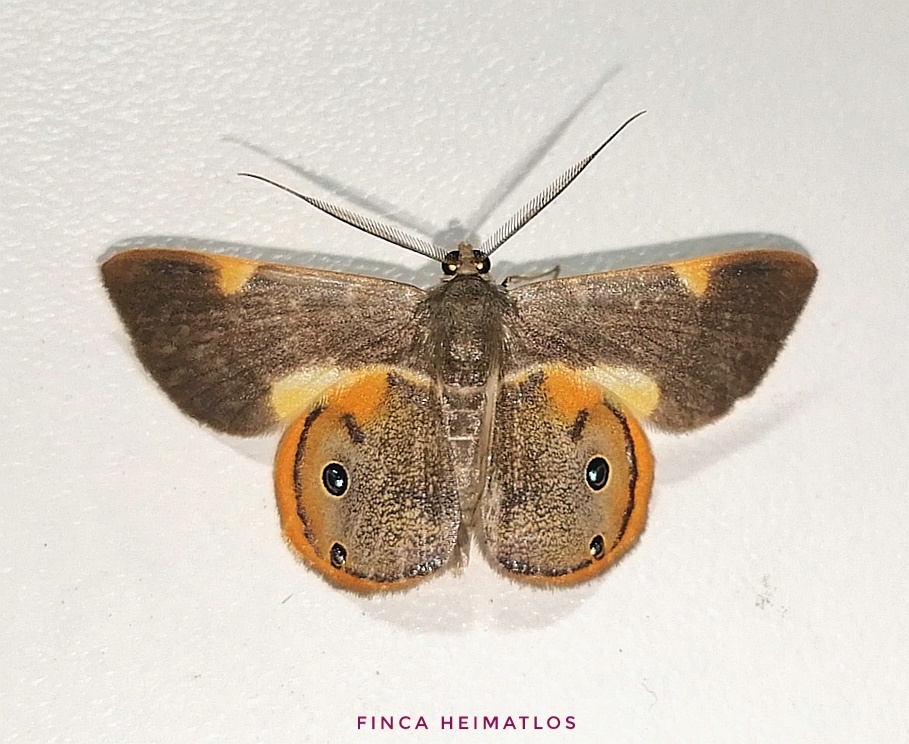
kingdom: Animalia
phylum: Arthropoda
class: Insecta
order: Lepidoptera
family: Geometridae
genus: Opisthoxia
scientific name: Opisthoxia haemon
